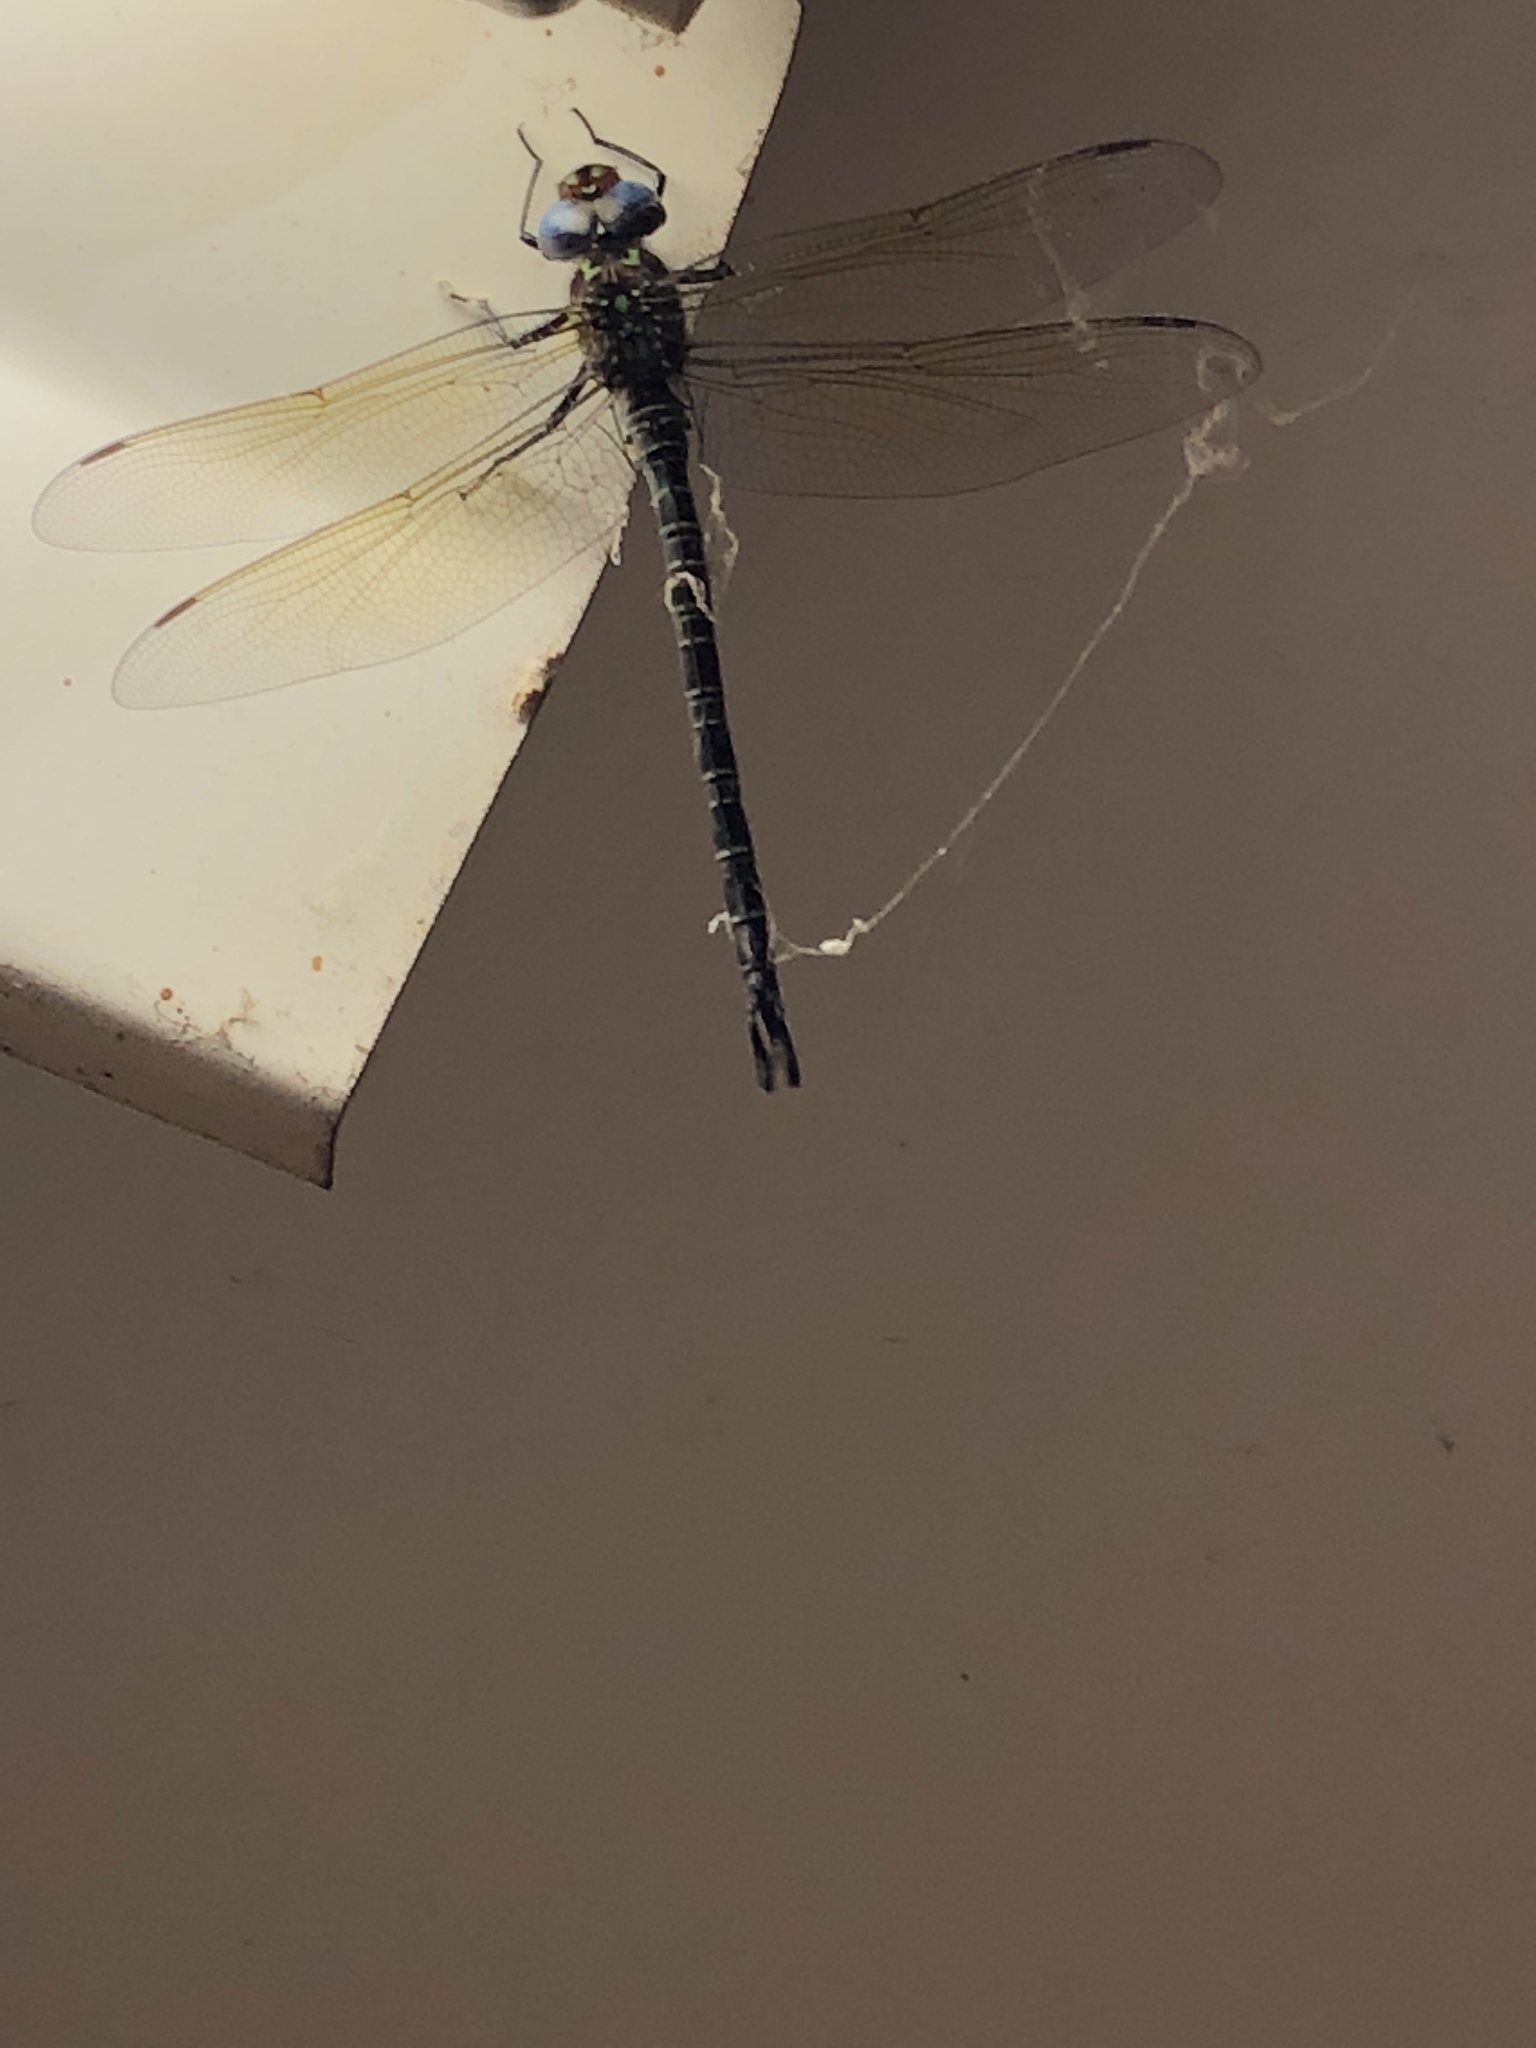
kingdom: Animalia
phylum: Arthropoda
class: Insecta
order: Odonata
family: Aeshnidae
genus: Epiaeschna
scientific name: Epiaeschna heros
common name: Swamp darner
